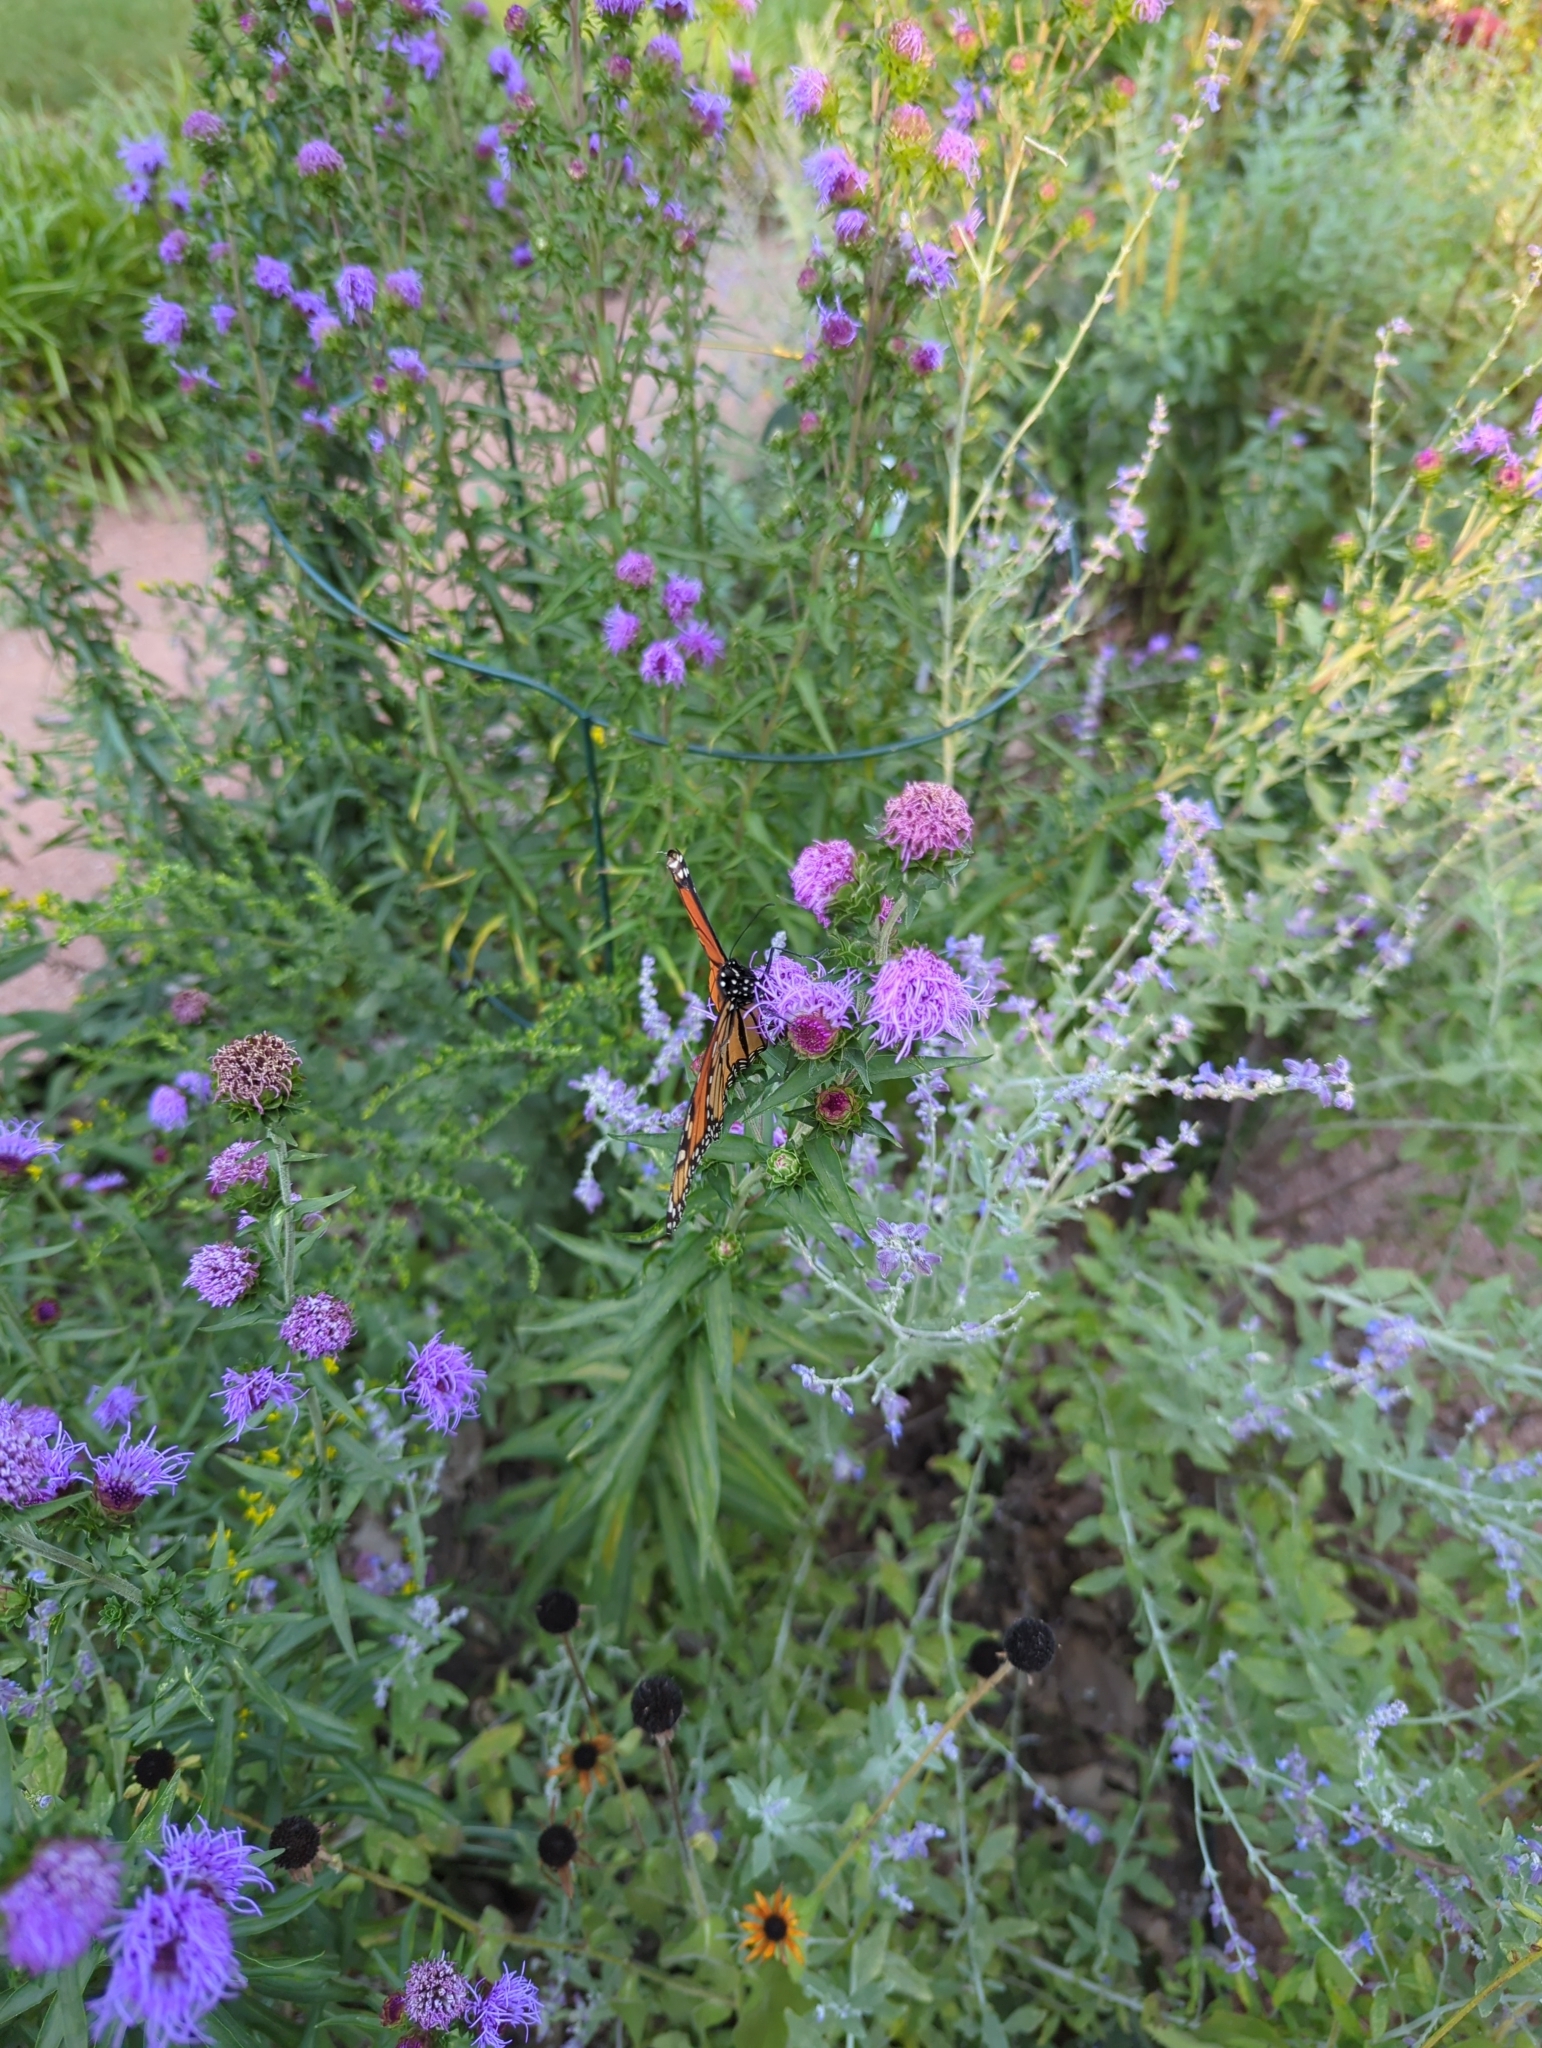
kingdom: Animalia
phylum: Arthropoda
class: Insecta
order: Lepidoptera
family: Nymphalidae
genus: Danaus
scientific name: Danaus plexippus
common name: Monarch
